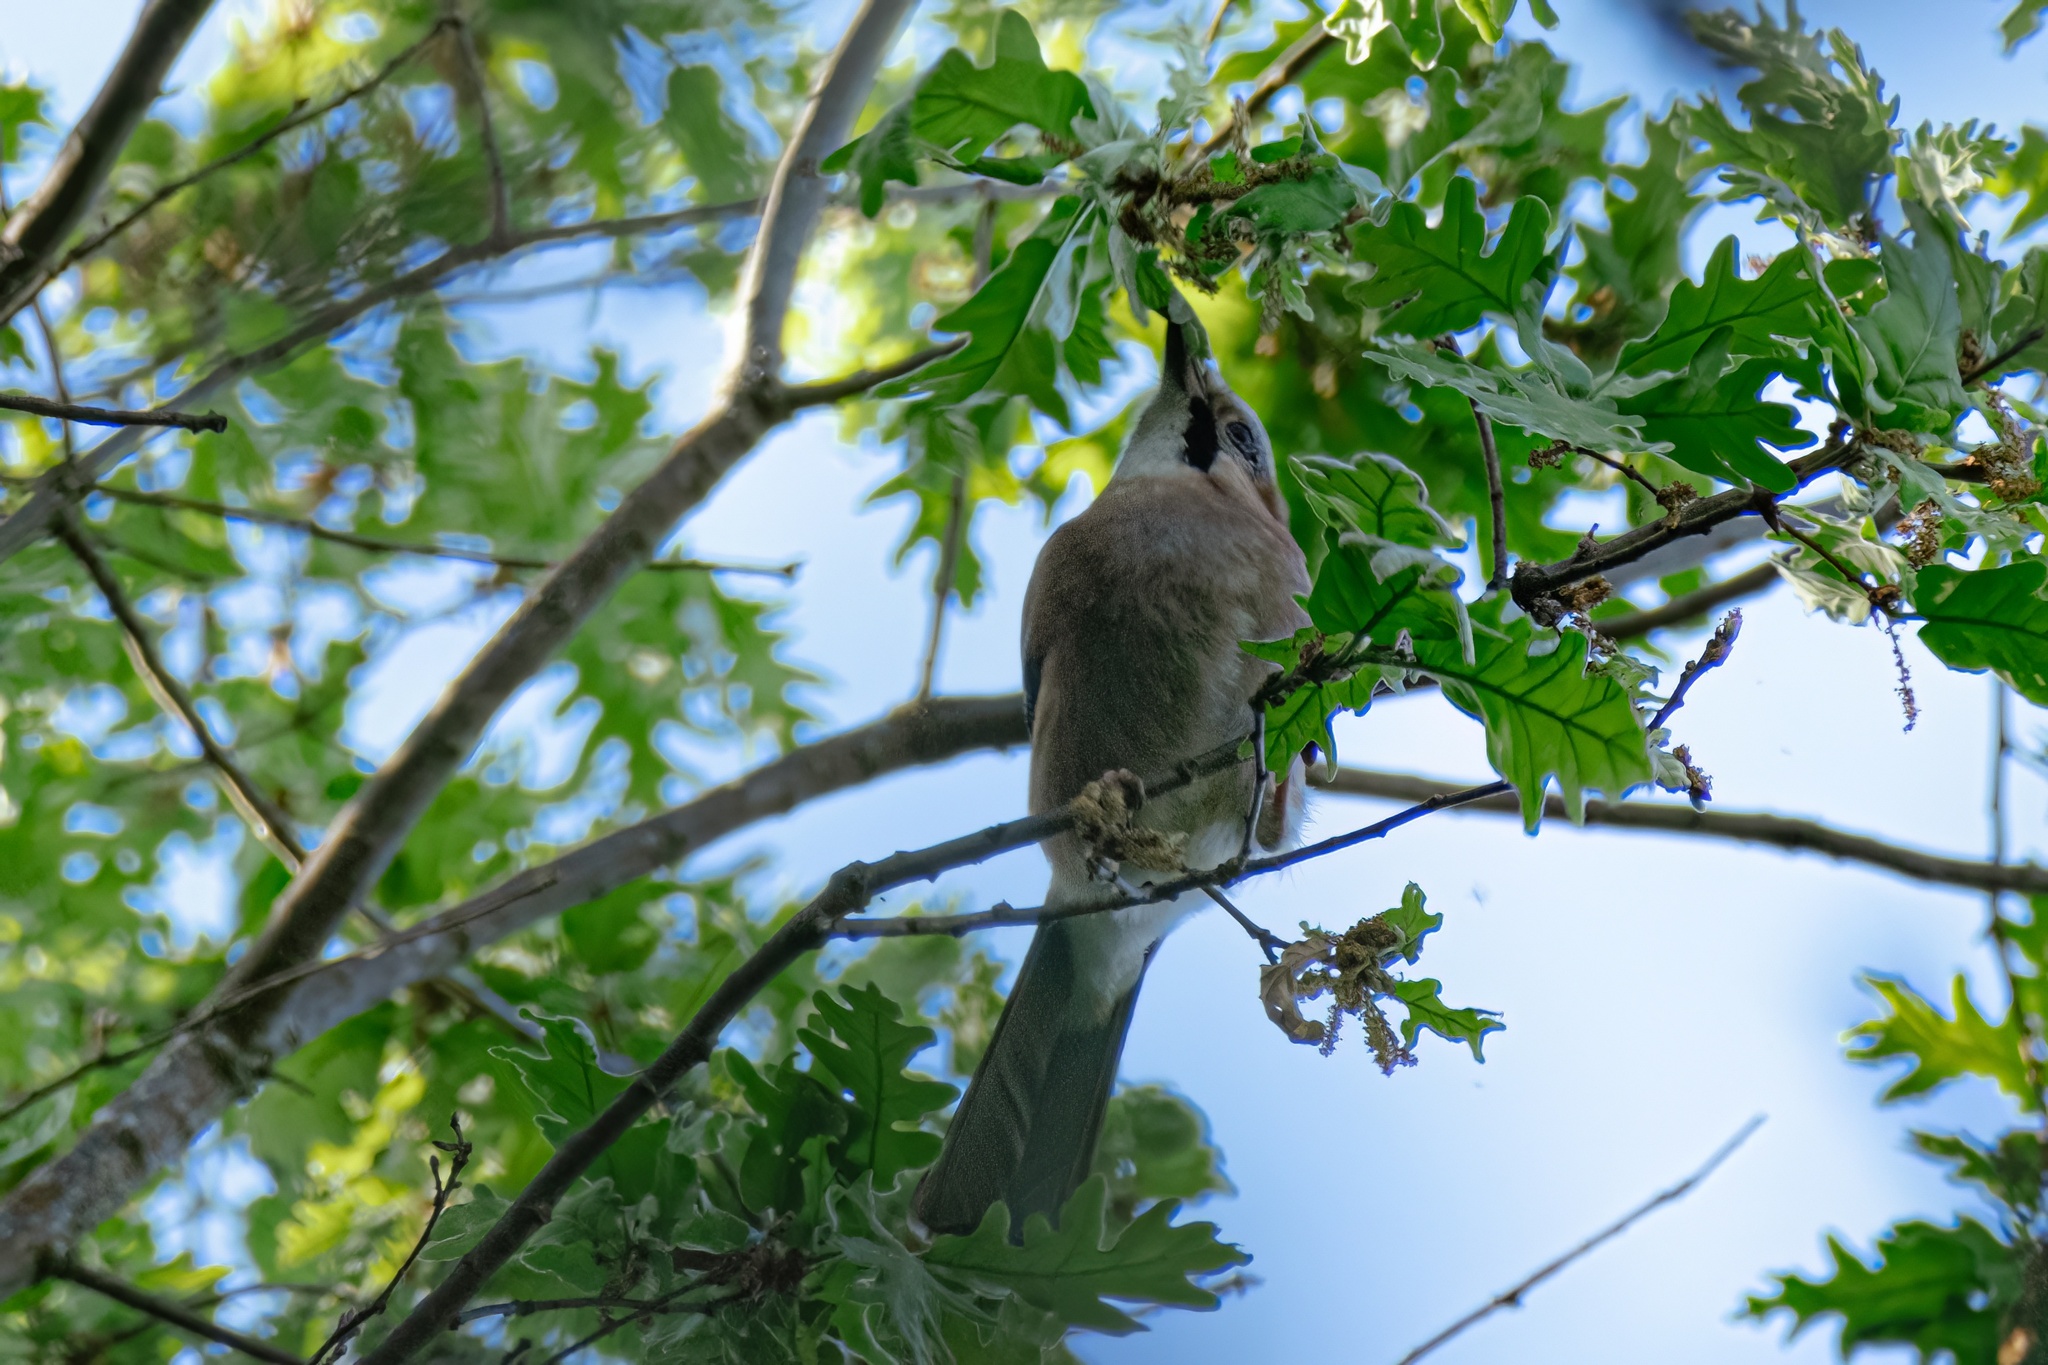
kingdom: Animalia
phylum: Chordata
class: Aves
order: Passeriformes
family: Corvidae
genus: Garrulus
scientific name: Garrulus glandarius
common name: Eurasian jay
